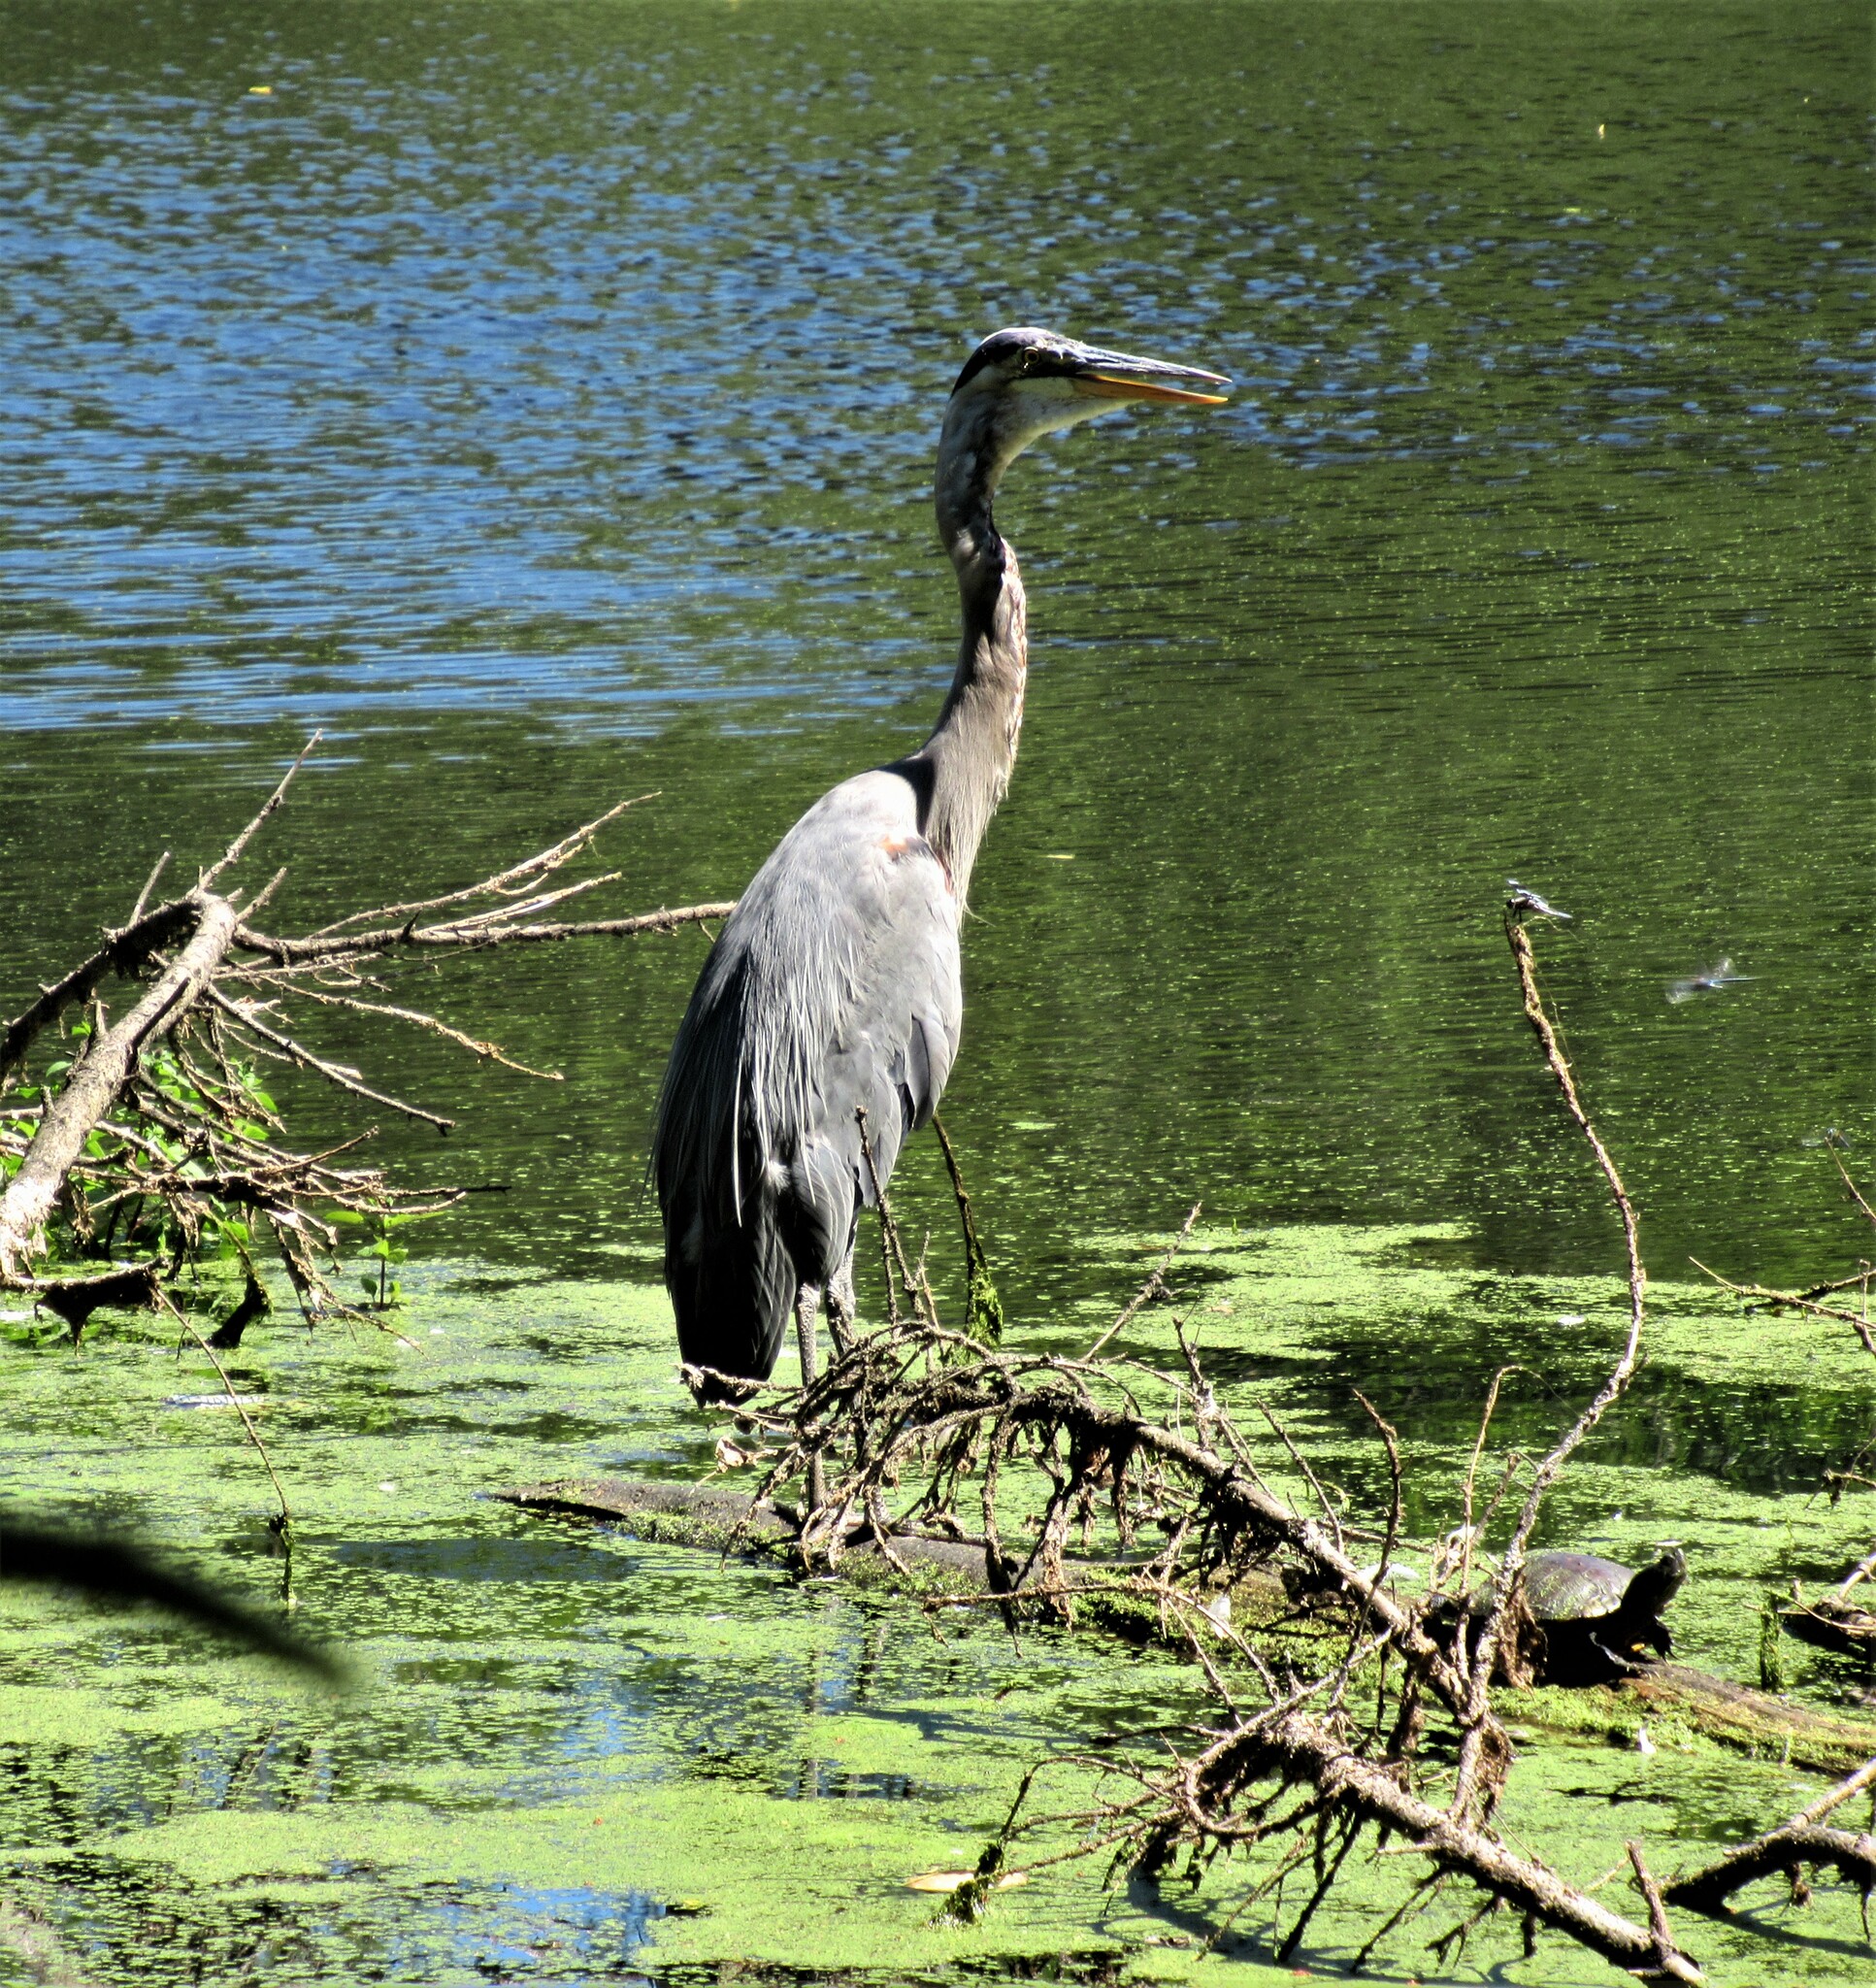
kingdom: Animalia
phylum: Chordata
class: Aves
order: Pelecaniformes
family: Ardeidae
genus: Ardea
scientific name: Ardea herodias
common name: Great blue heron
